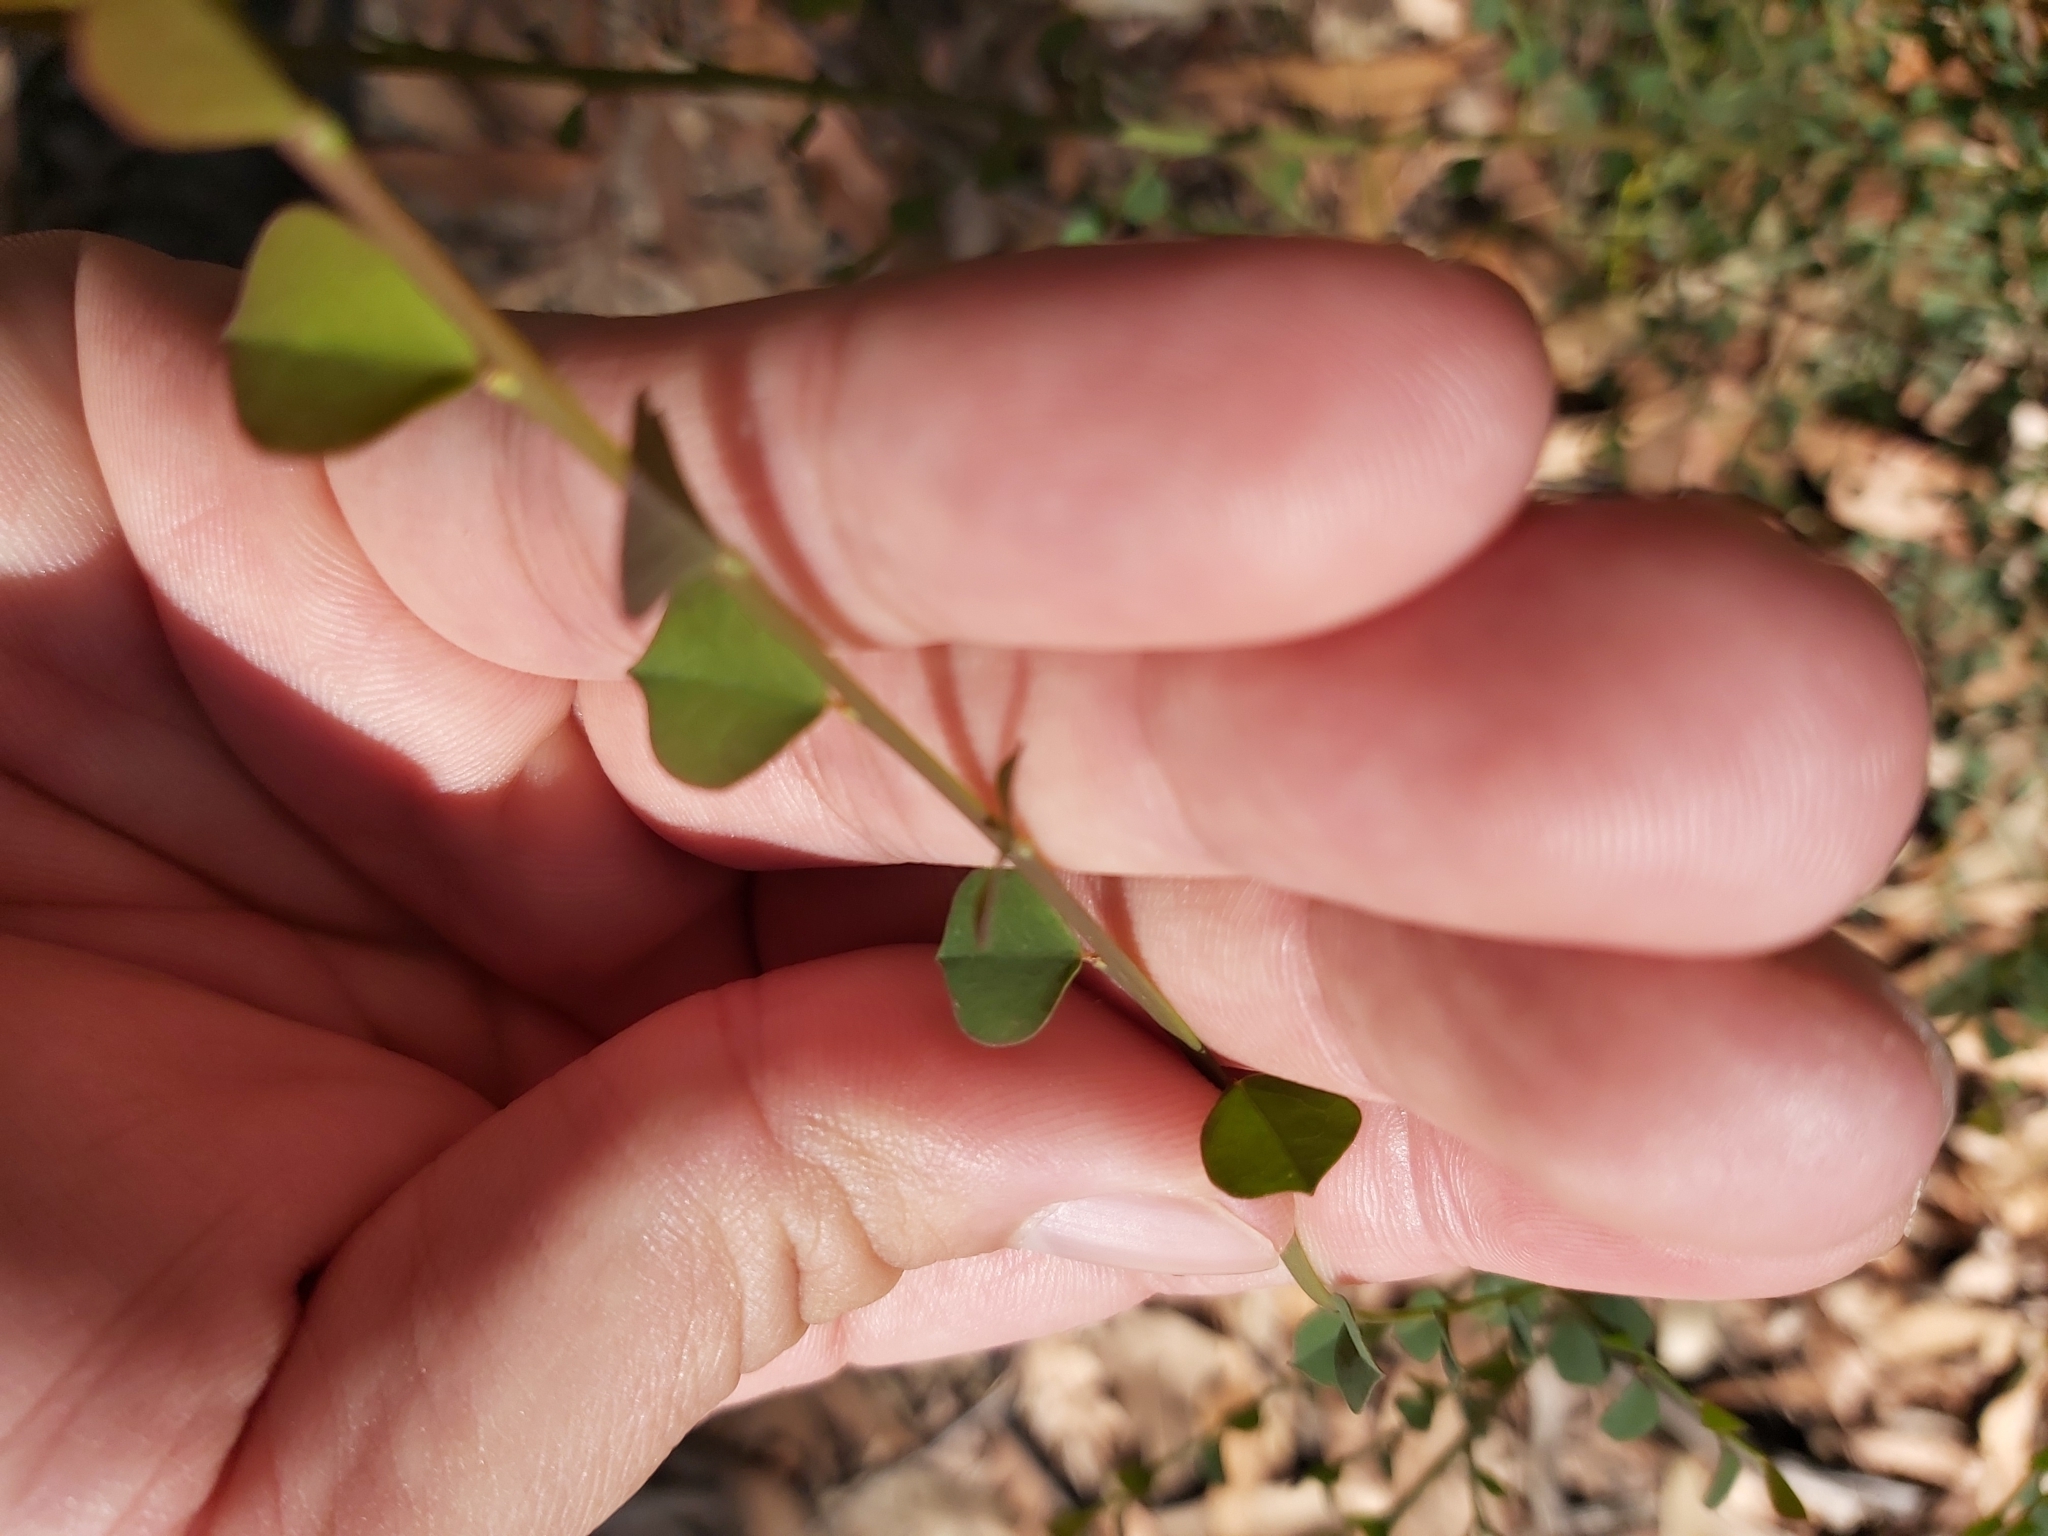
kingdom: Plantae
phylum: Tracheophyta
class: Magnoliopsida
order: Fabales
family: Fabaceae
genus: Bossiaea
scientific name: Bossiaea rhombifolia
